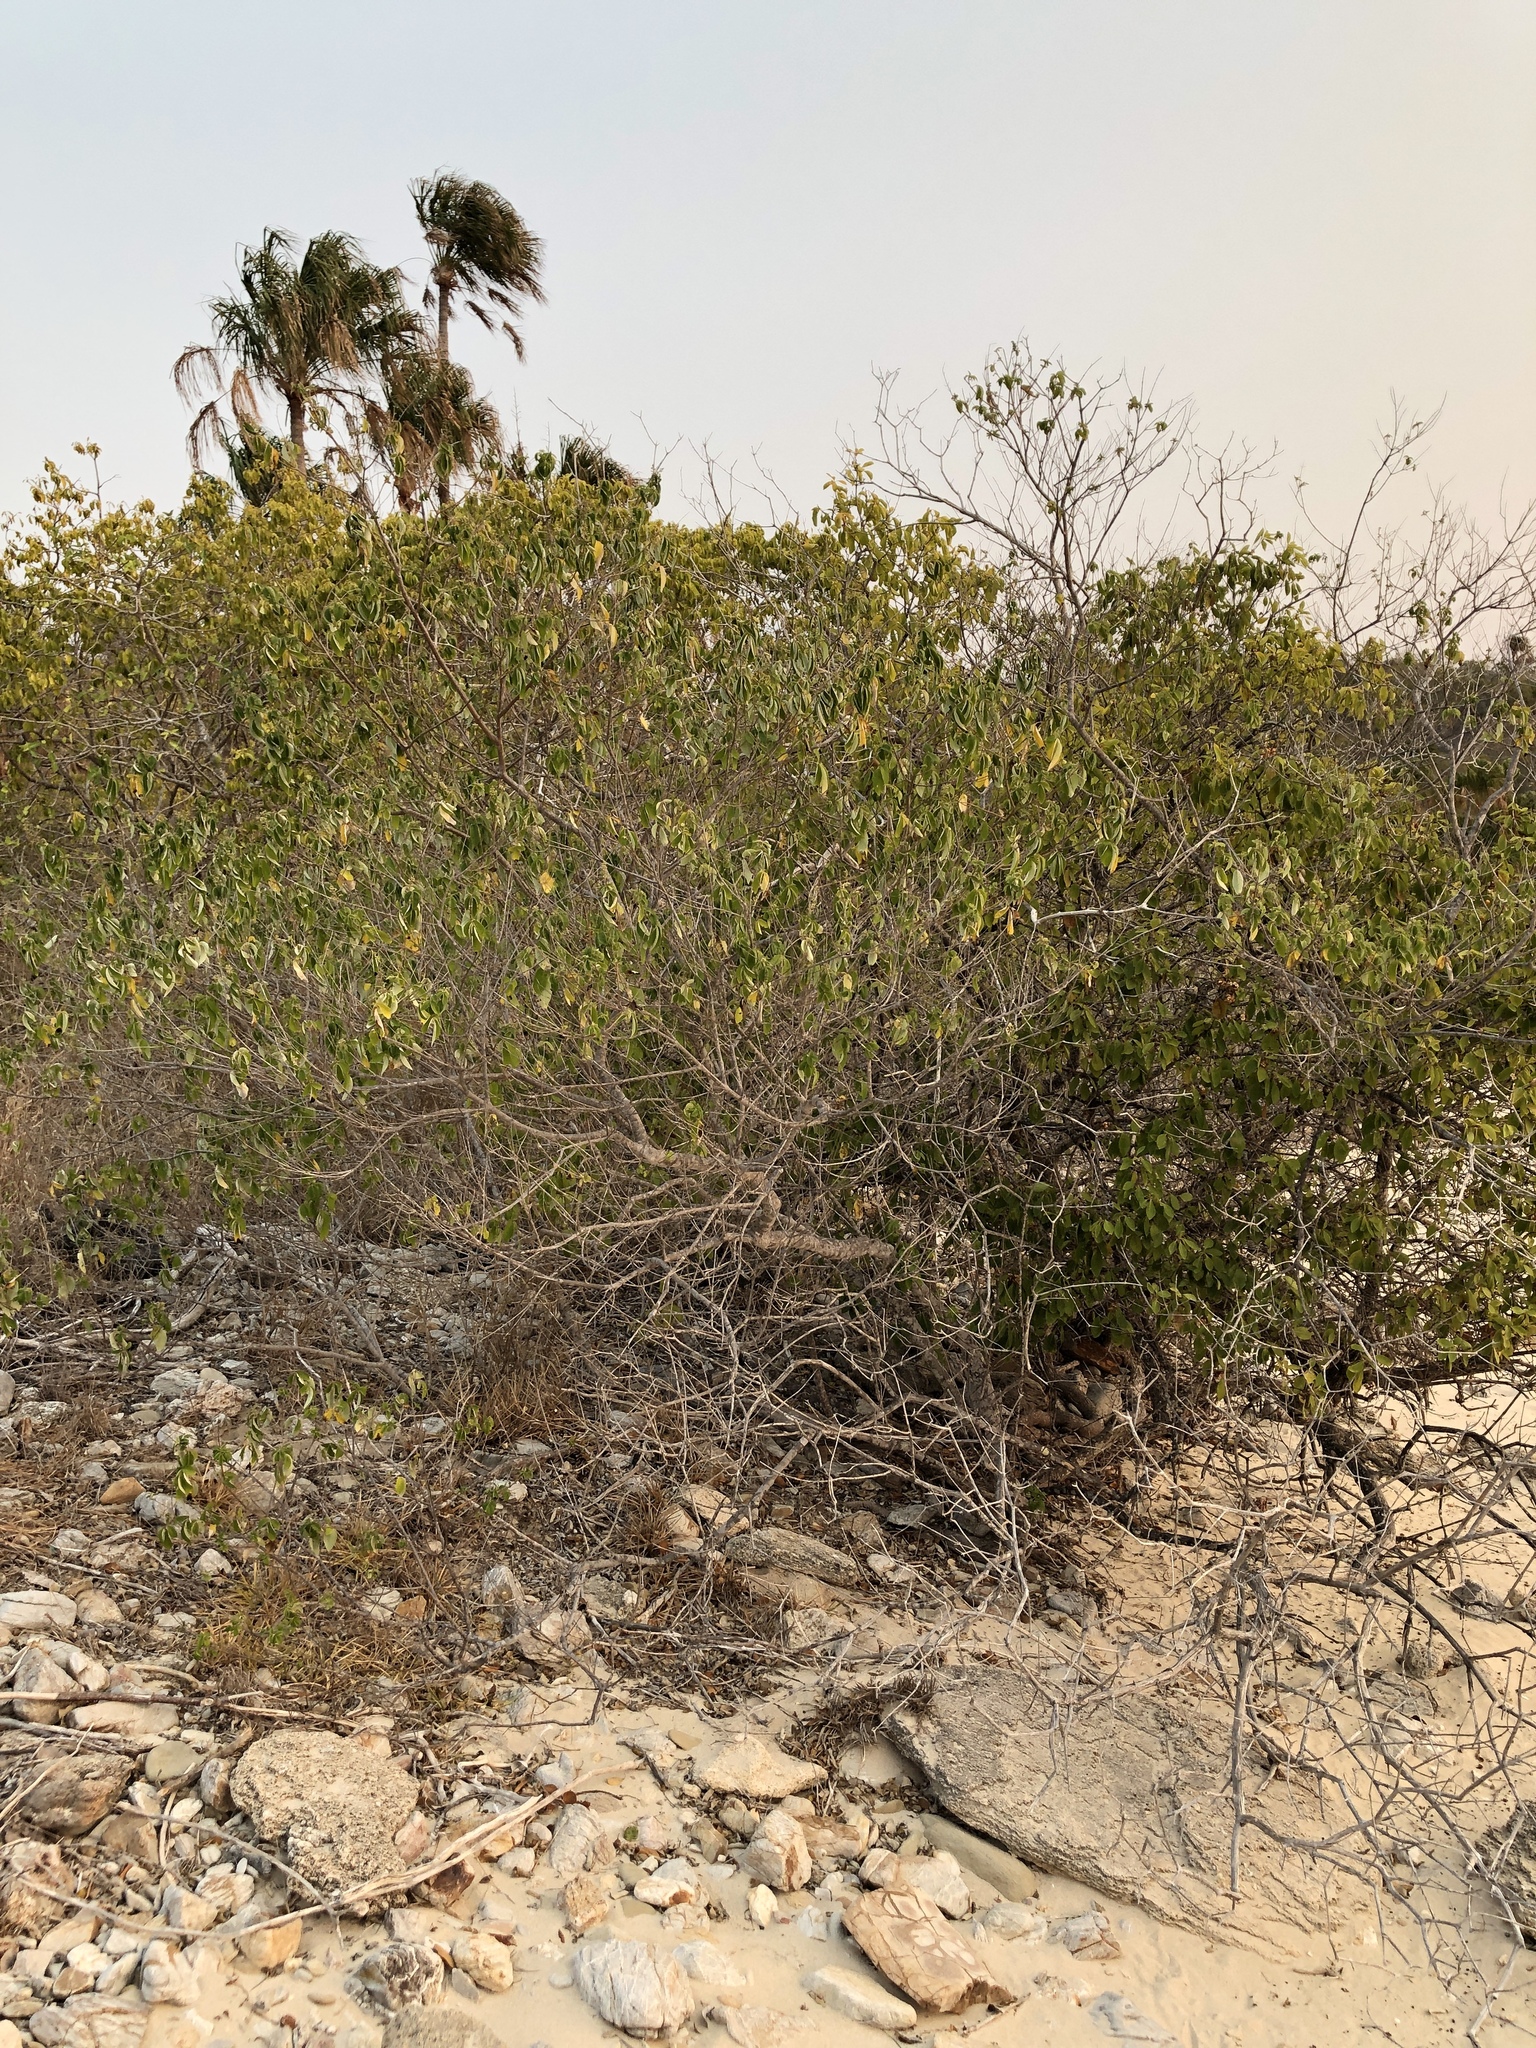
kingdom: Plantae
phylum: Tracheophyta
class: Magnoliopsida
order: Lamiales
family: Lamiaceae
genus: Vitex
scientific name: Vitex trifolia
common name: Simpleleaf chastetree
